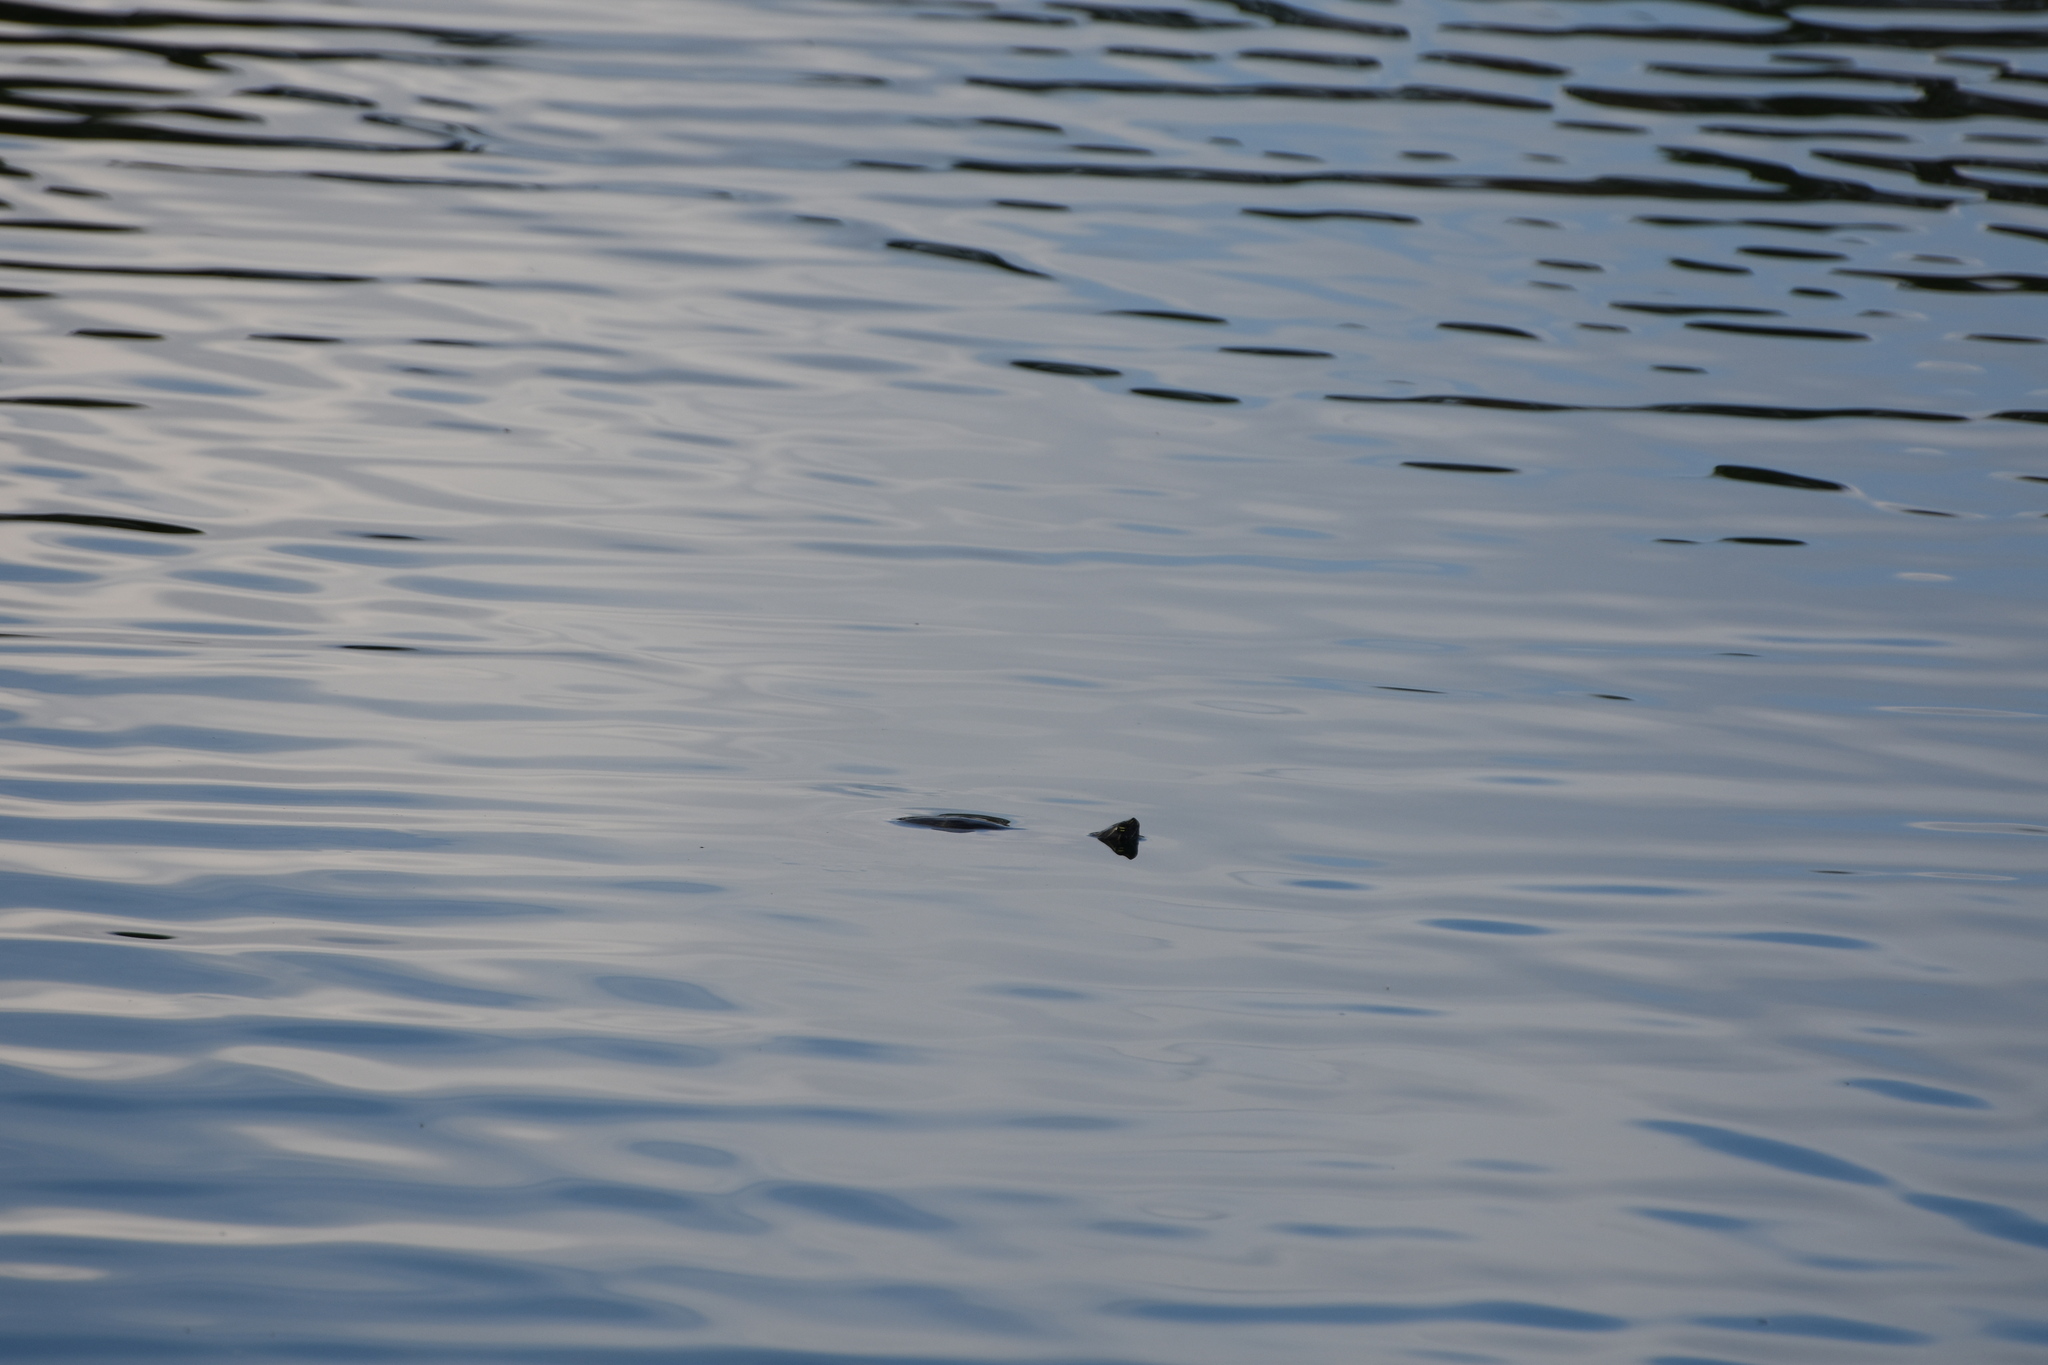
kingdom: Animalia
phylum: Chordata
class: Testudines
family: Emydidae
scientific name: Emydidae
